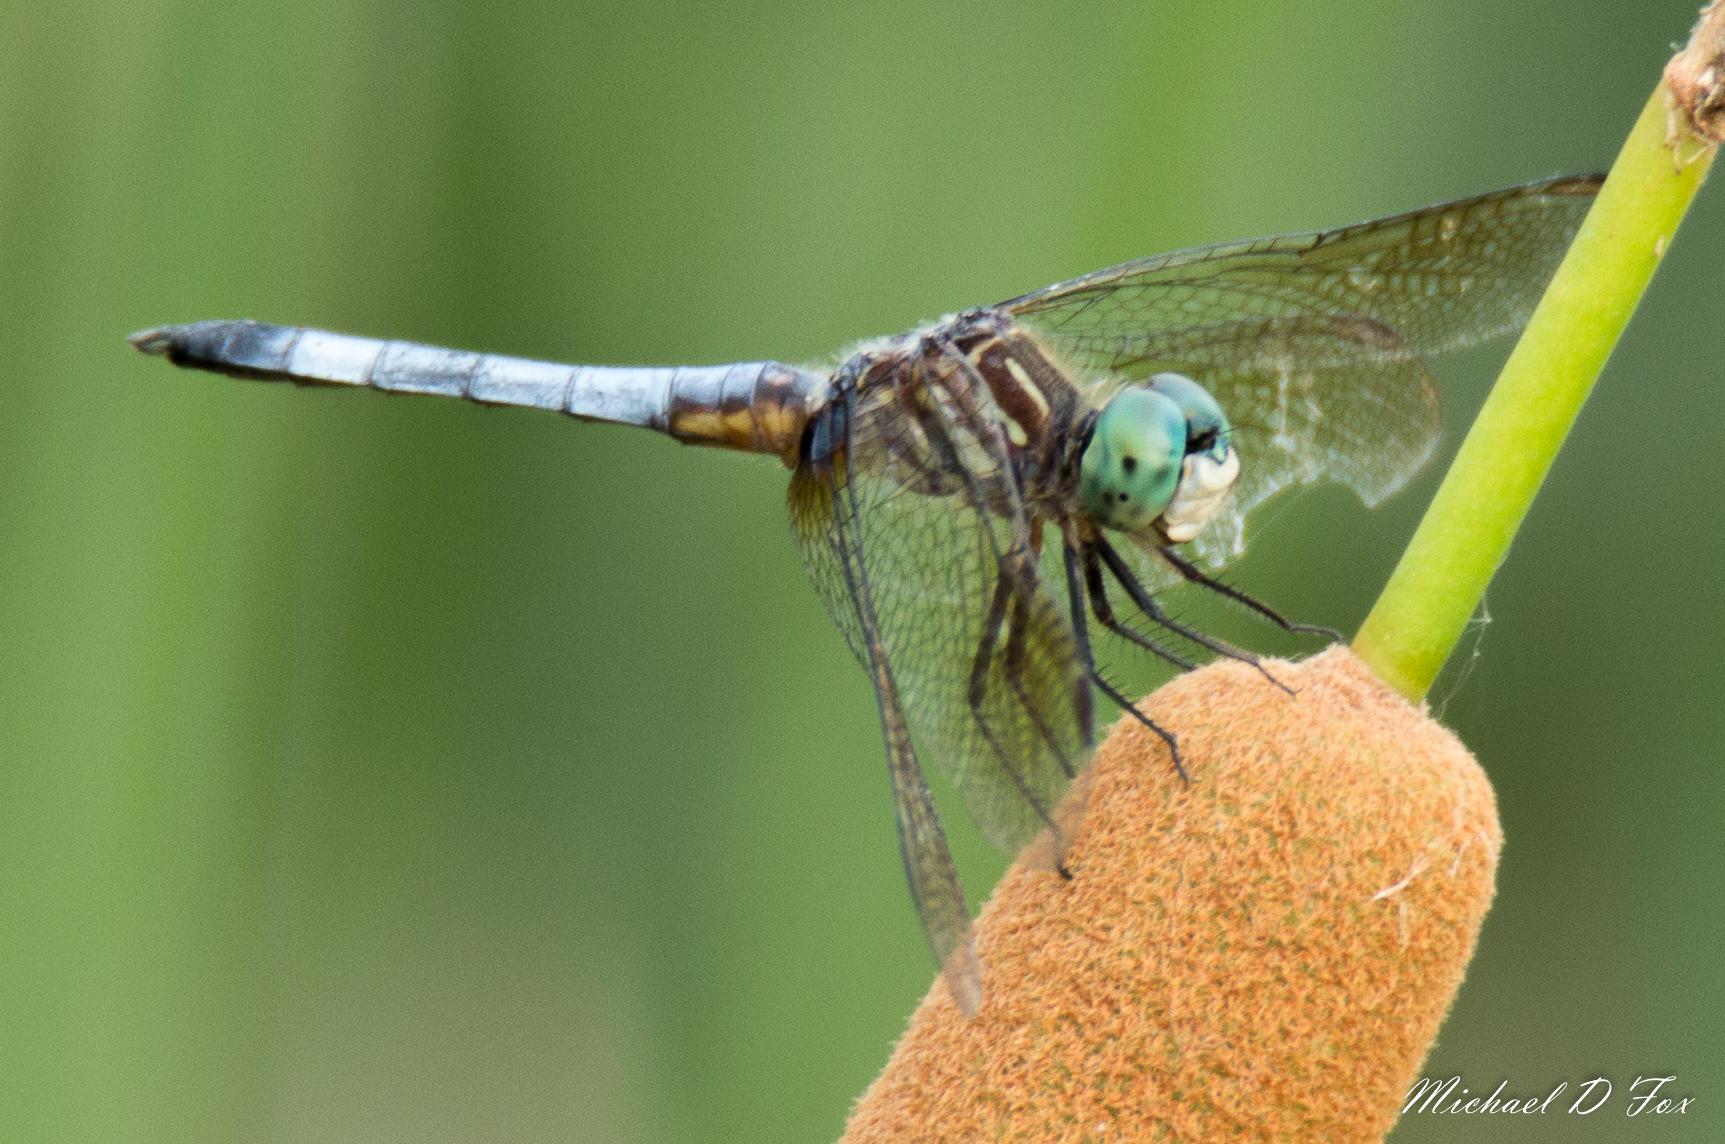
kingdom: Animalia
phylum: Arthropoda
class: Insecta
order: Odonata
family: Libellulidae
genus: Pachydiplax
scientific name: Pachydiplax longipennis
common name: Blue dasher
